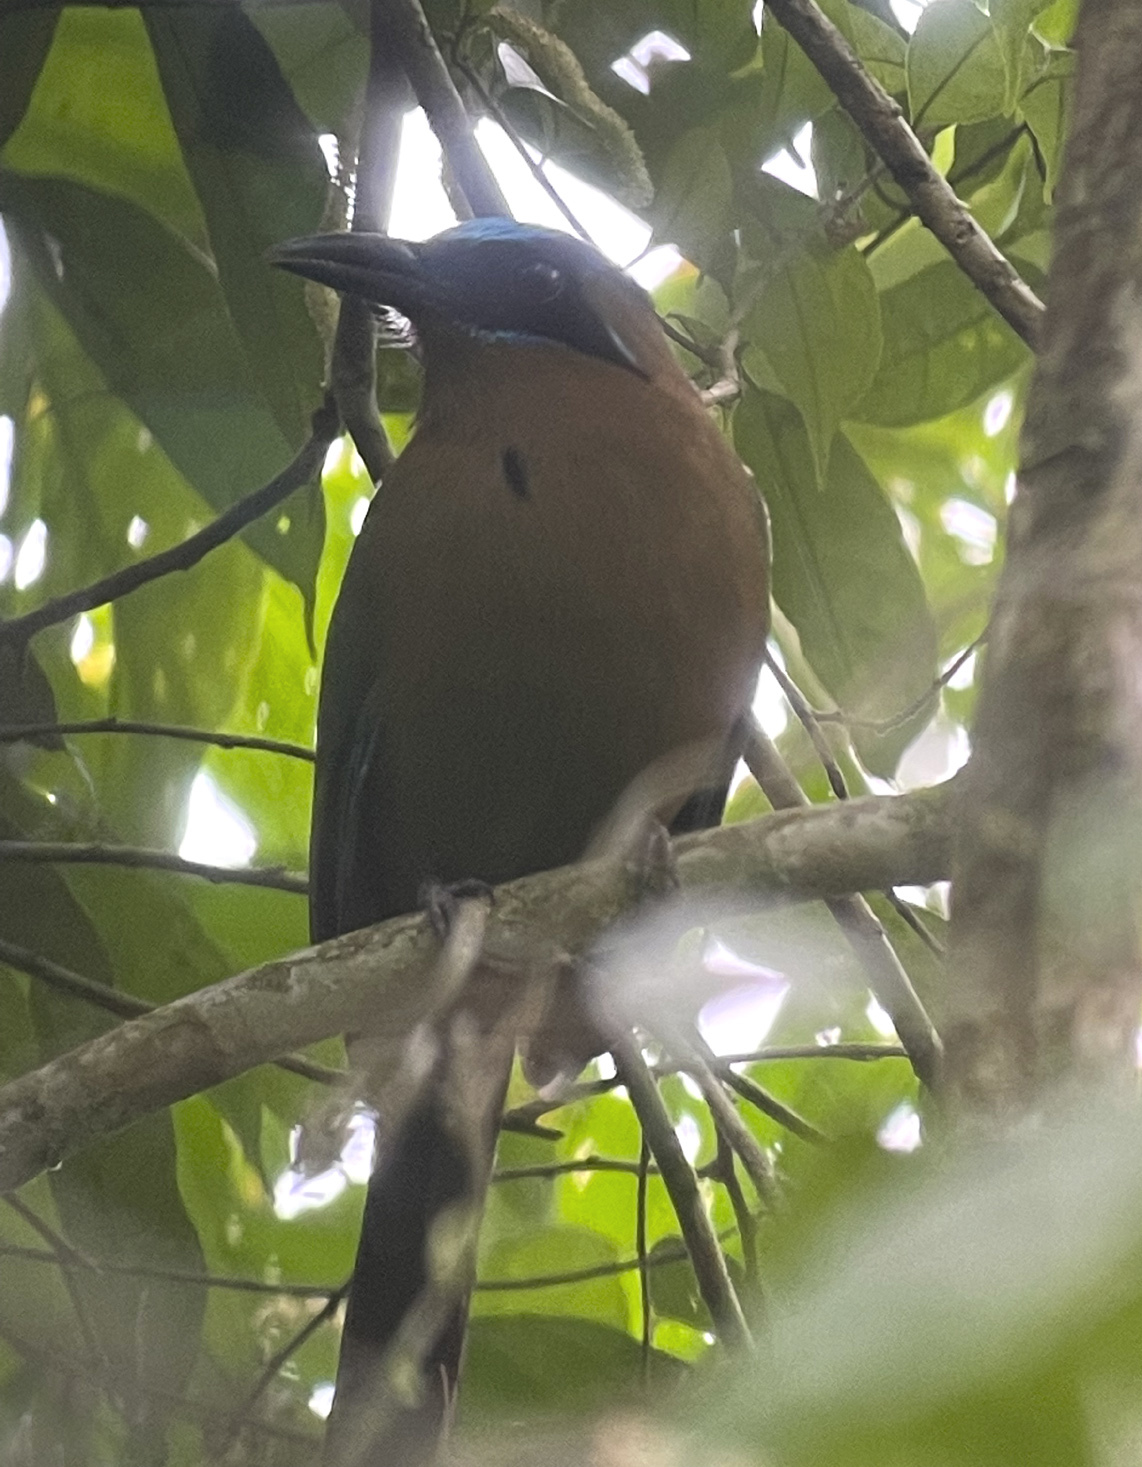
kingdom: Animalia
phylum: Chordata
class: Aves
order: Coraciiformes
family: Momotidae
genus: Momotus
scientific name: Momotus momota
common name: Amazonian motmot
